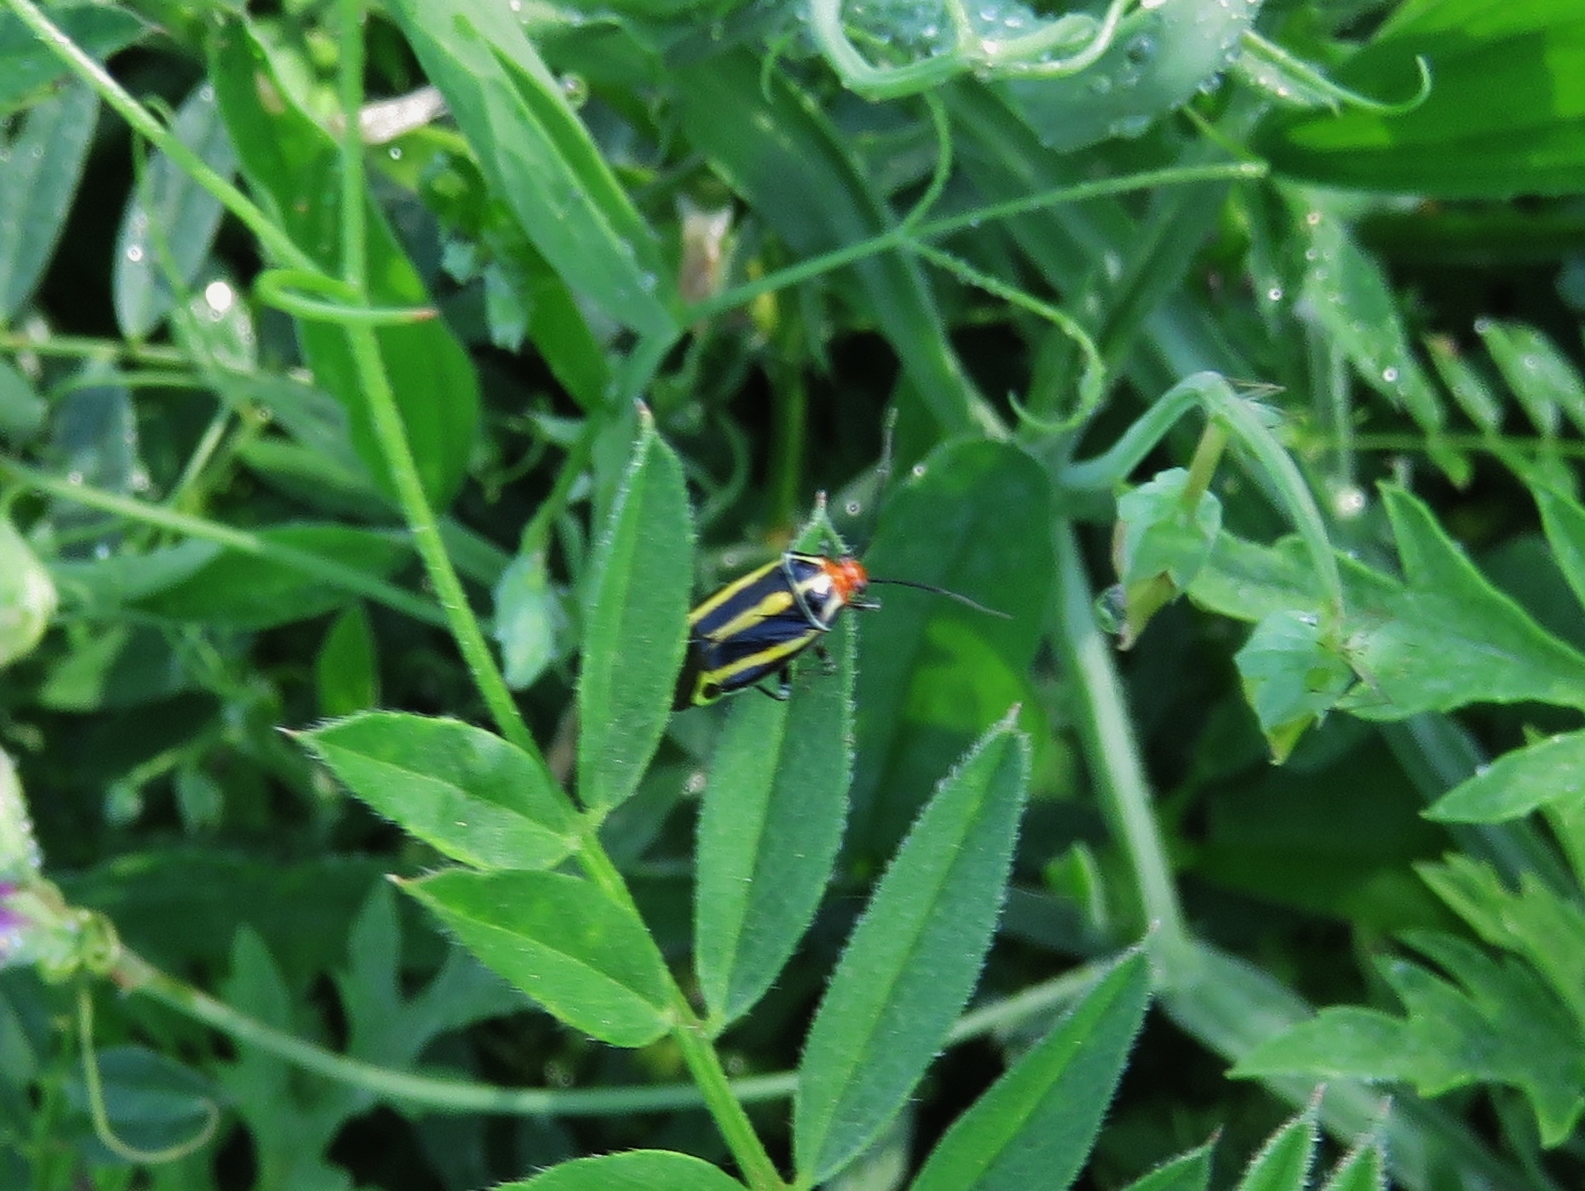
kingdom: Animalia
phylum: Arthropoda
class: Insecta
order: Hemiptera
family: Miridae
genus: Poecilocapsus
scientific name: Poecilocapsus lineatus
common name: Four-lined plant bug
